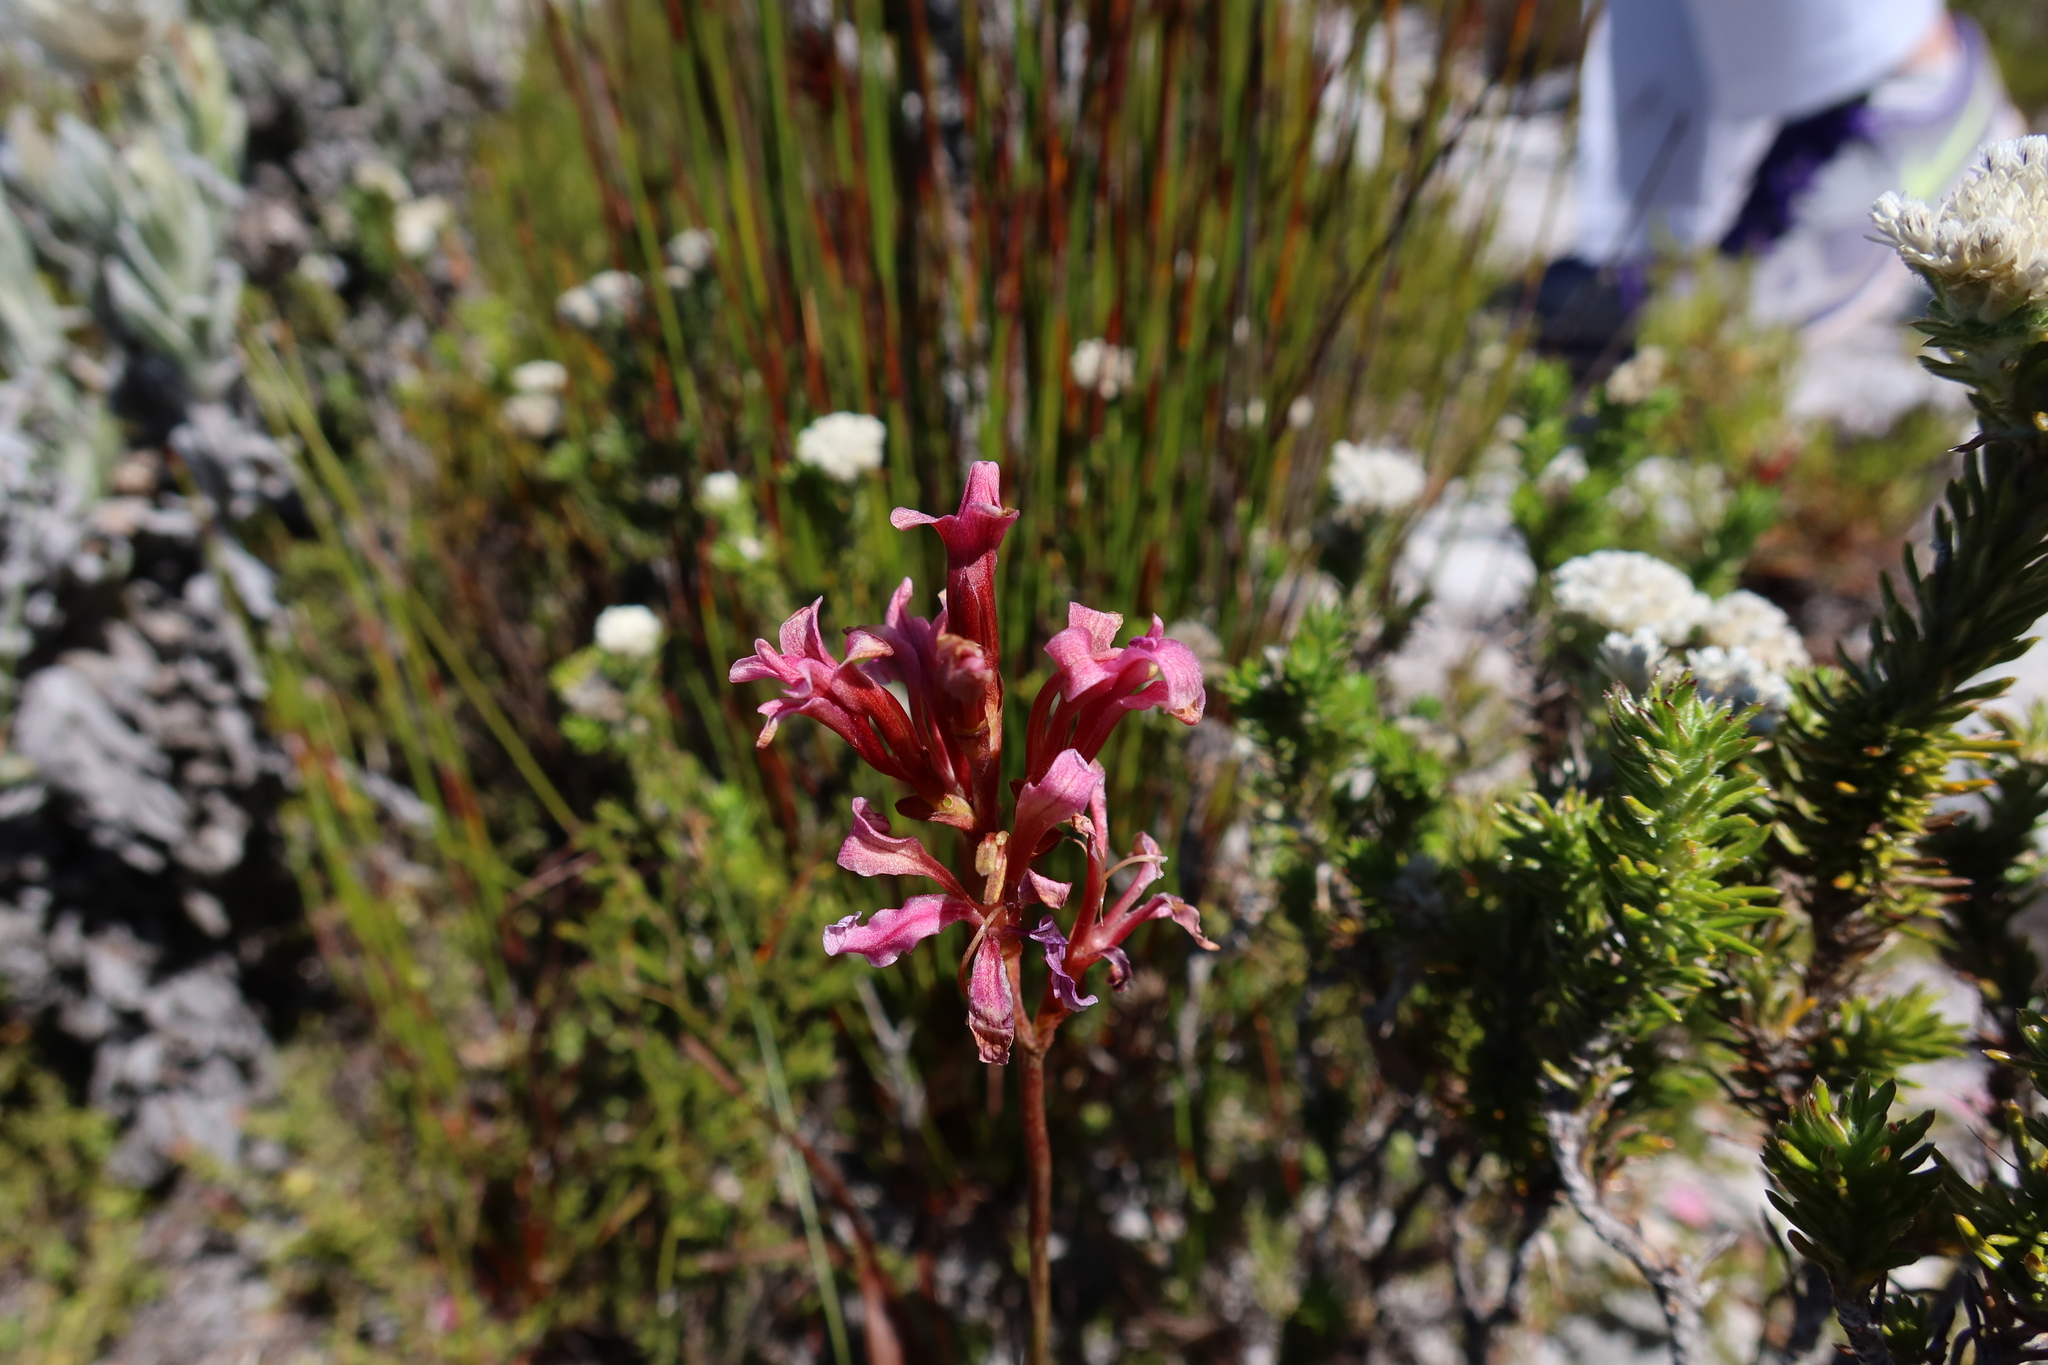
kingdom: Plantae
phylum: Tracheophyta
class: Liliopsida
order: Asparagales
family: Iridaceae
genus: Tritoniopsis
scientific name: Tritoniopsis dodii
